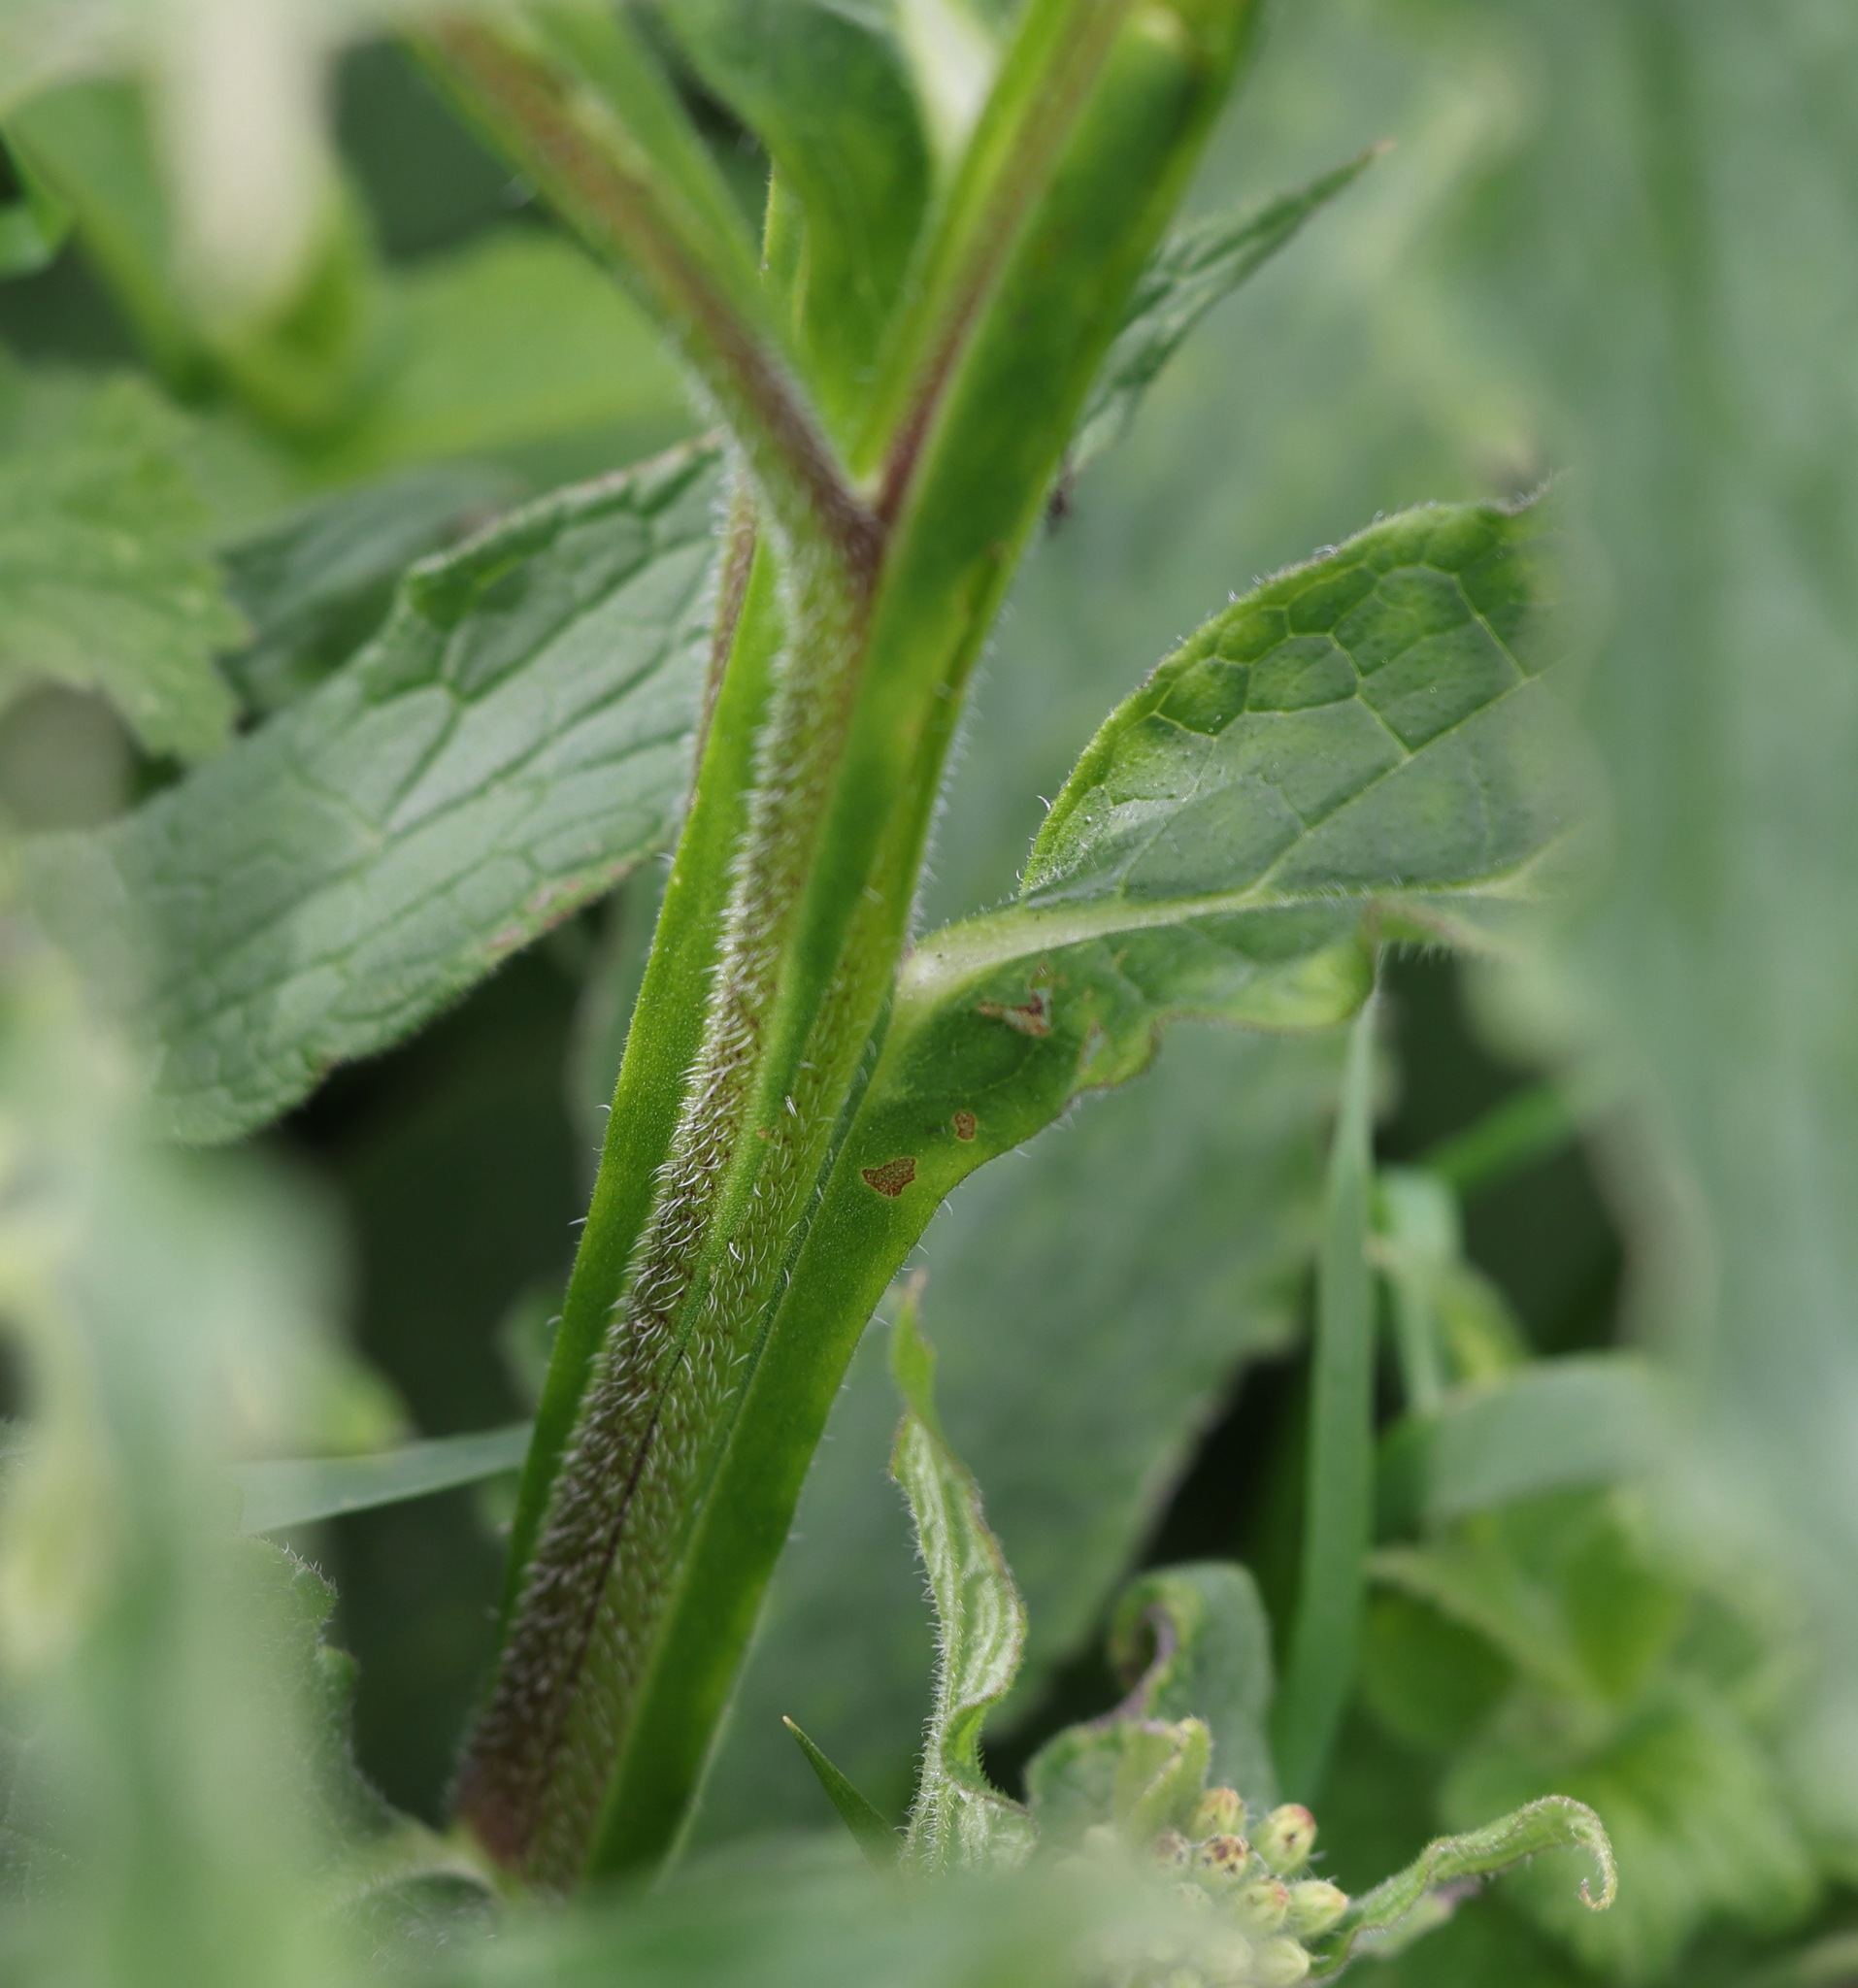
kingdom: Plantae
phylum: Tracheophyta
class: Magnoliopsida
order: Boraginales
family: Boraginaceae
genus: Symphytum
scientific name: Symphytum officinale
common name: Common comfrey
